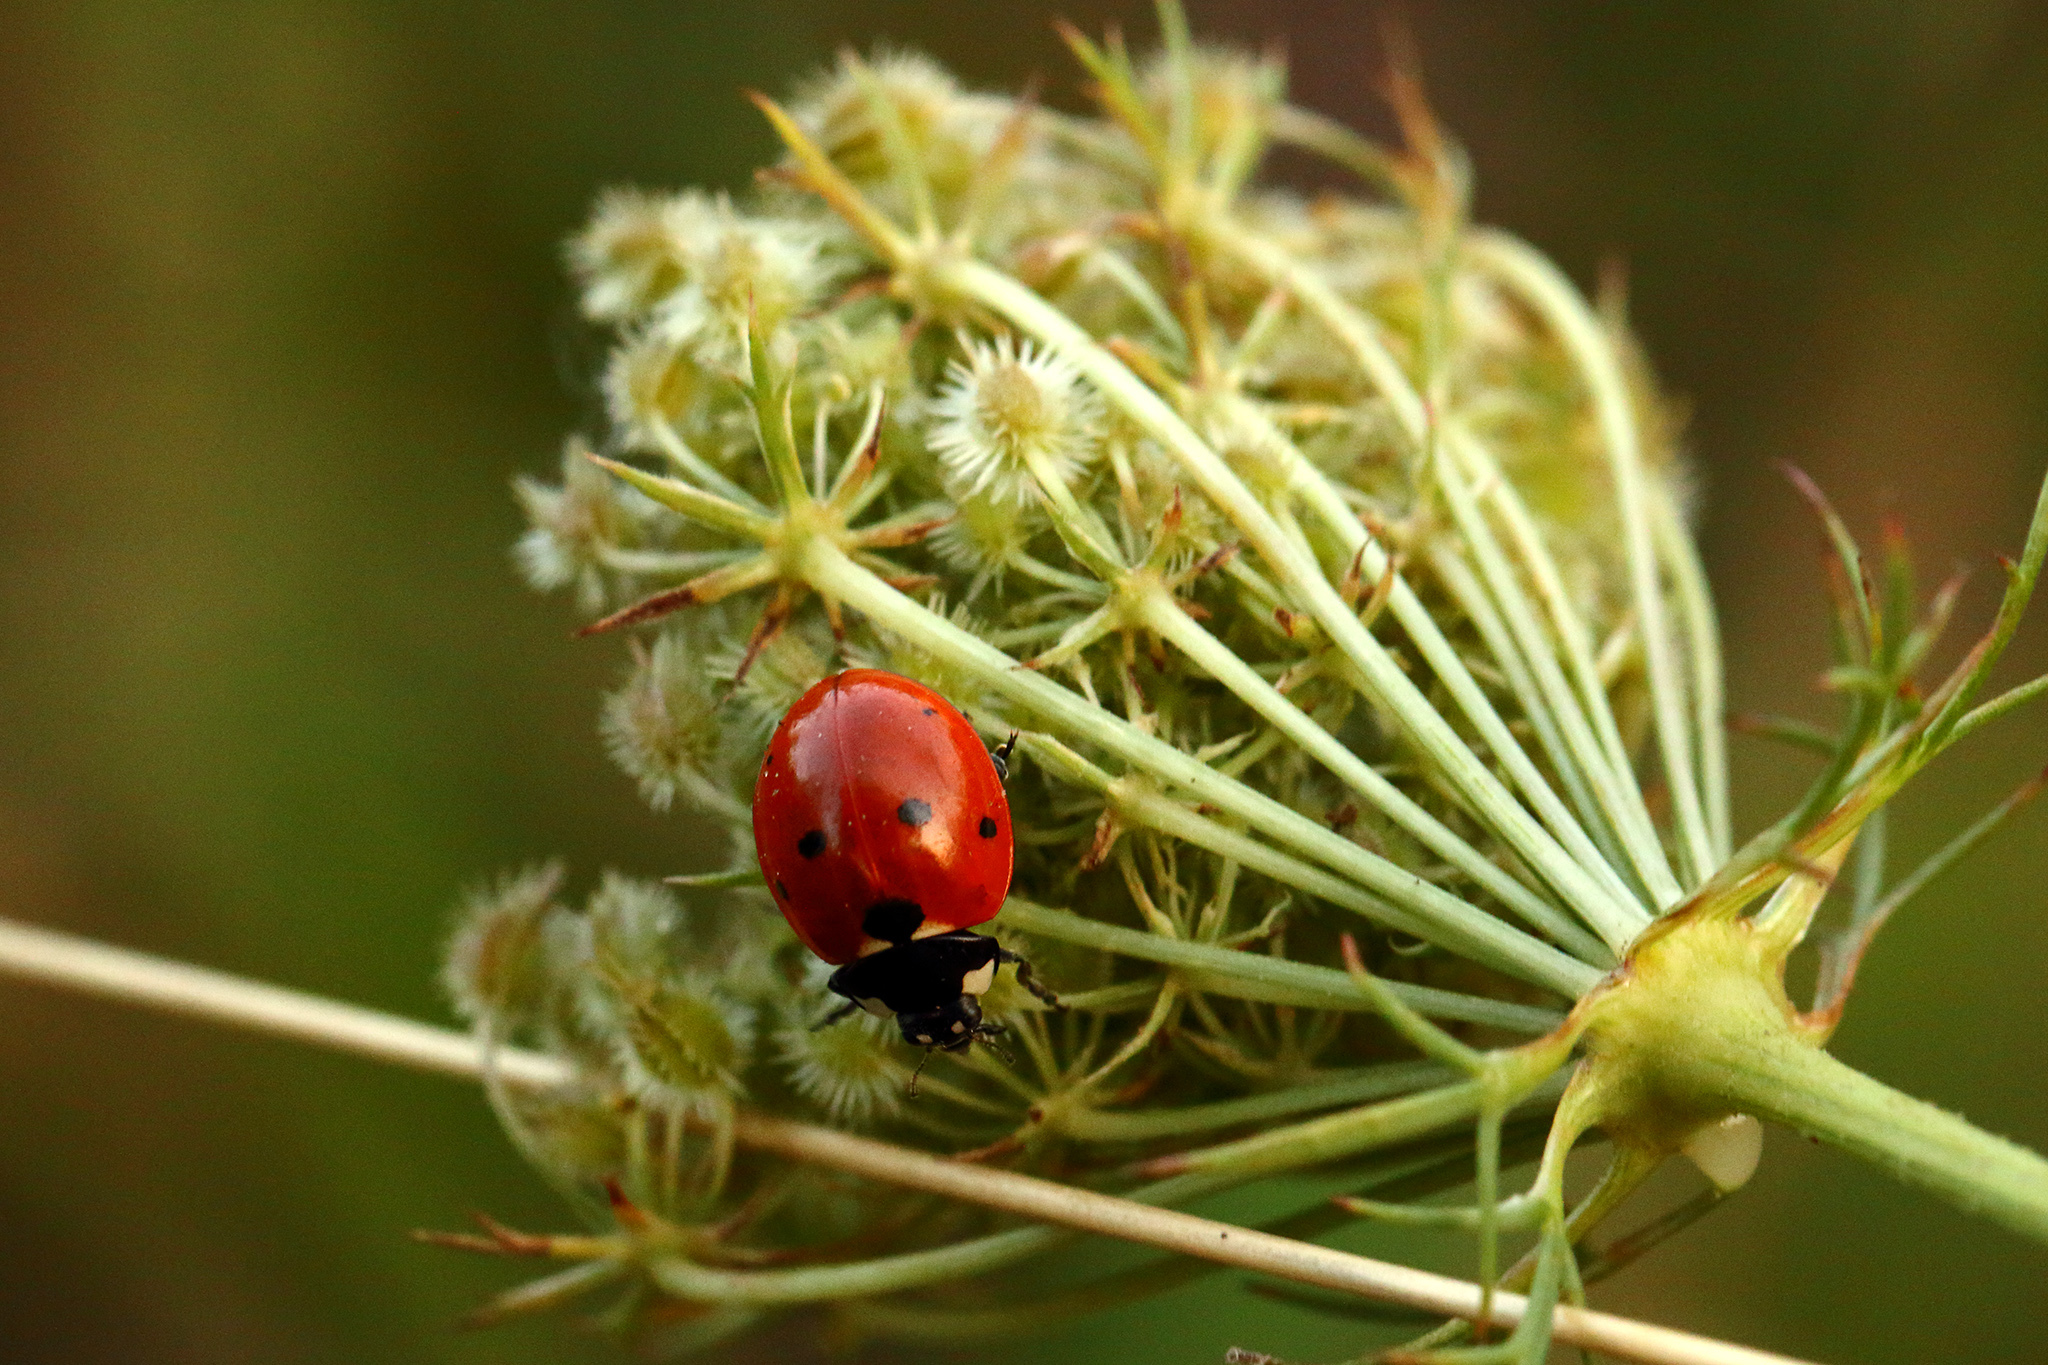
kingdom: Animalia
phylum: Arthropoda
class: Insecta
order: Coleoptera
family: Coccinellidae
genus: Coccinella
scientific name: Coccinella septempunctata
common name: Sevenspotted lady beetle
